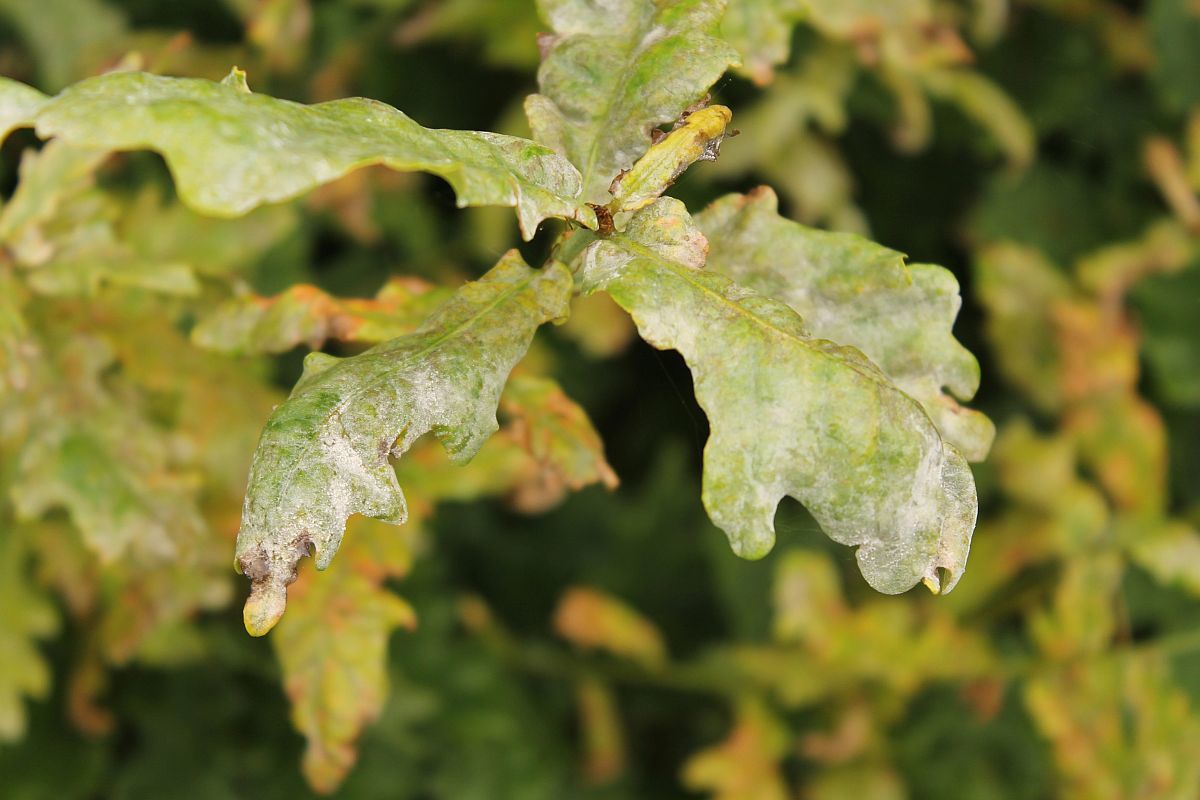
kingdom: Fungi
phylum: Ascomycota
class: Leotiomycetes
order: Helotiales
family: Erysiphaceae
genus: Erysiphe
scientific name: Erysiphe alphitoides
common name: Oak mildew
